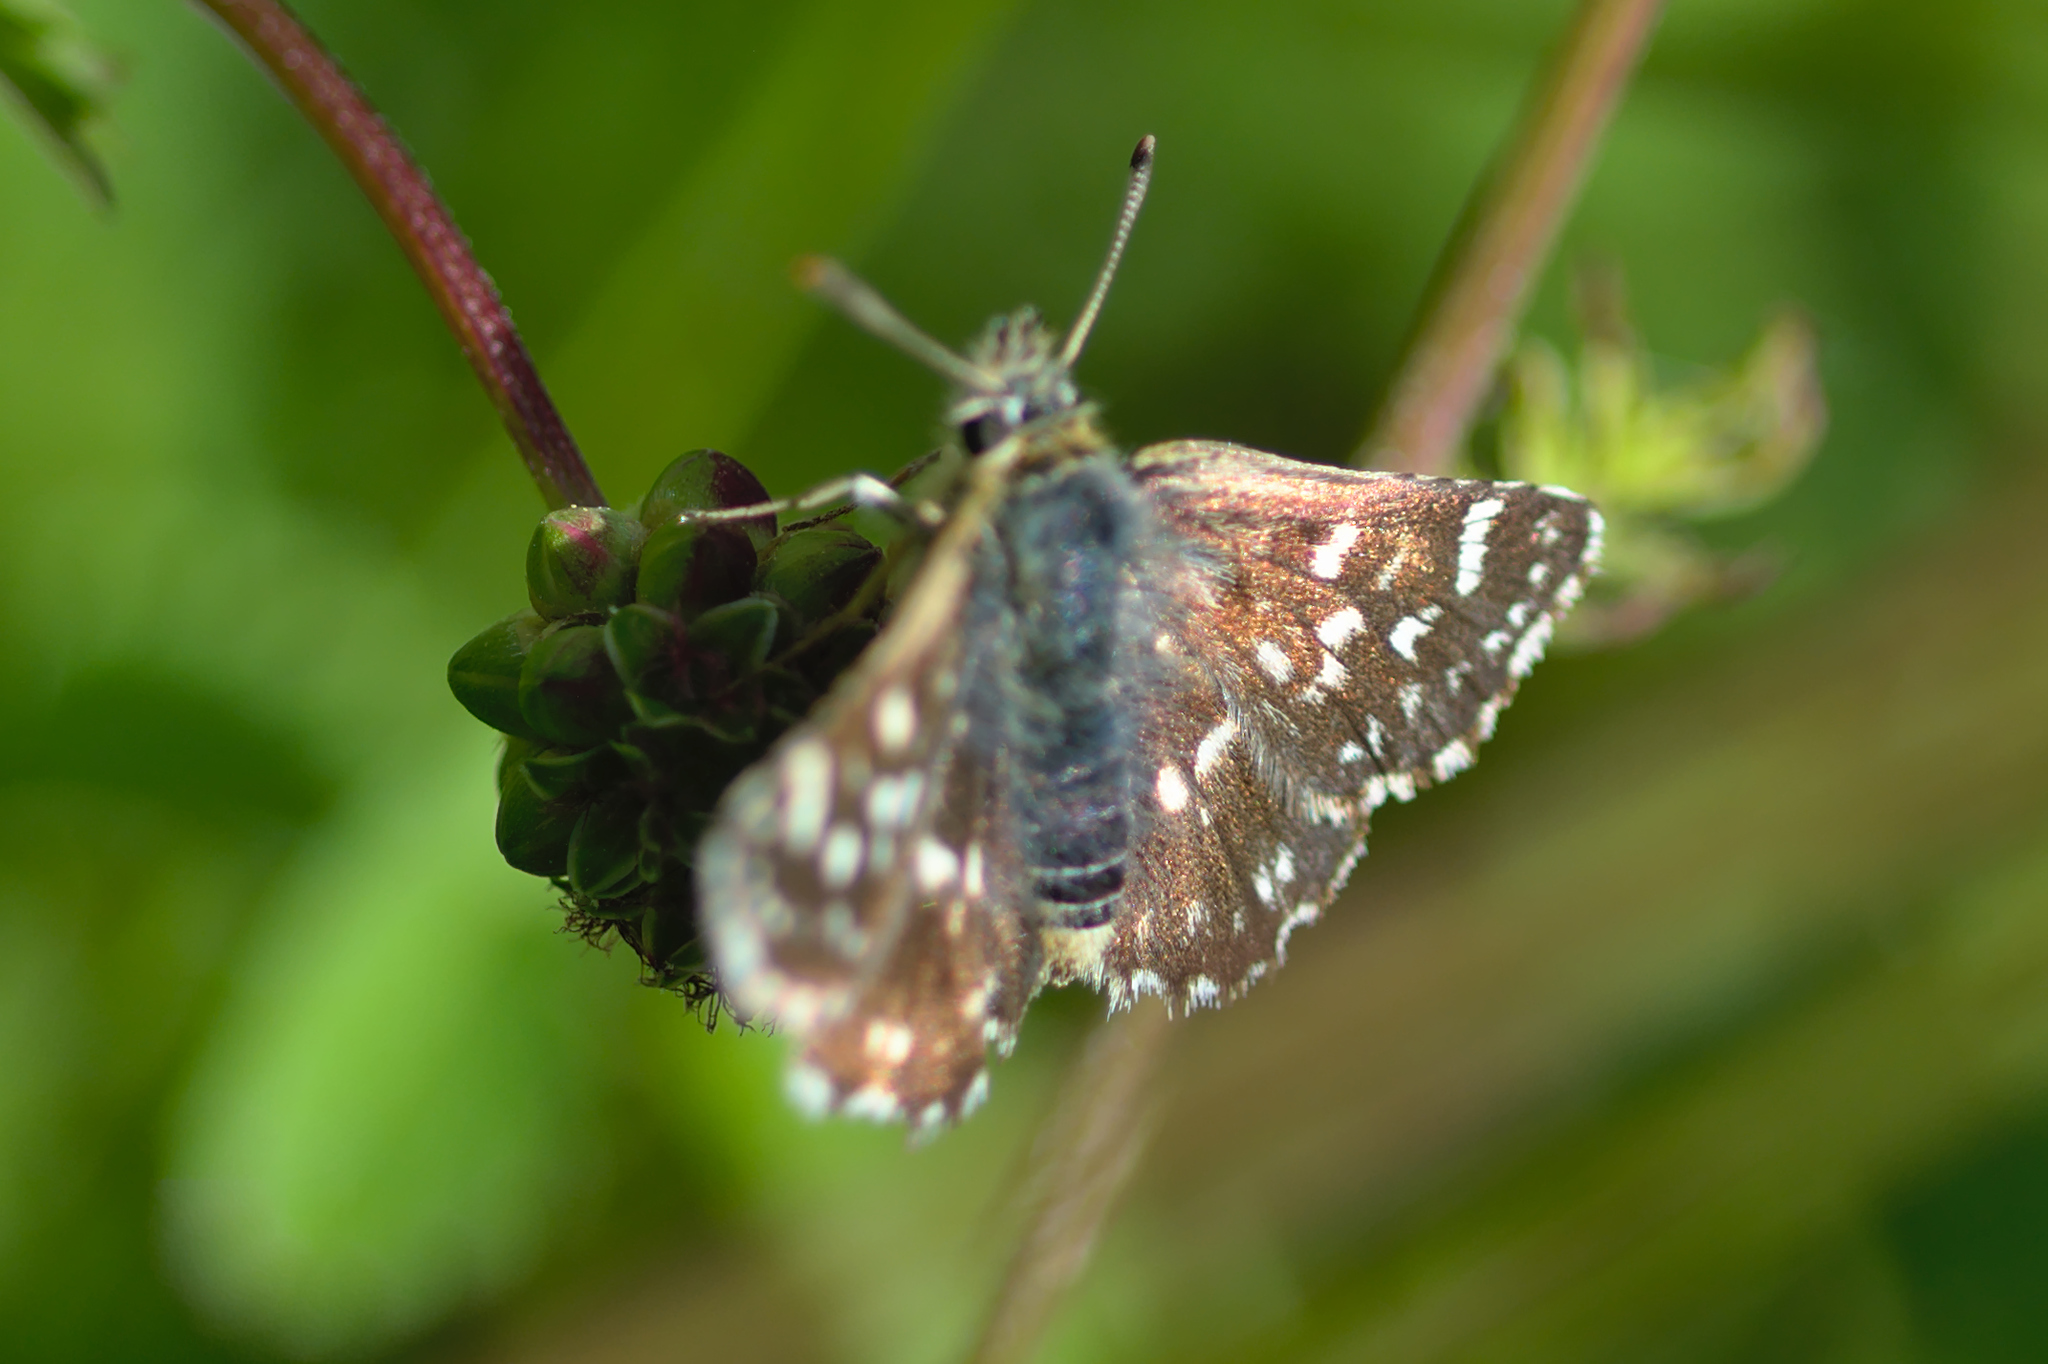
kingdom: Animalia
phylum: Arthropoda
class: Insecta
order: Lepidoptera
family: Hesperiidae
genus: Spialia
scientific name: Spialia sertorius
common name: Red underwing skipper
